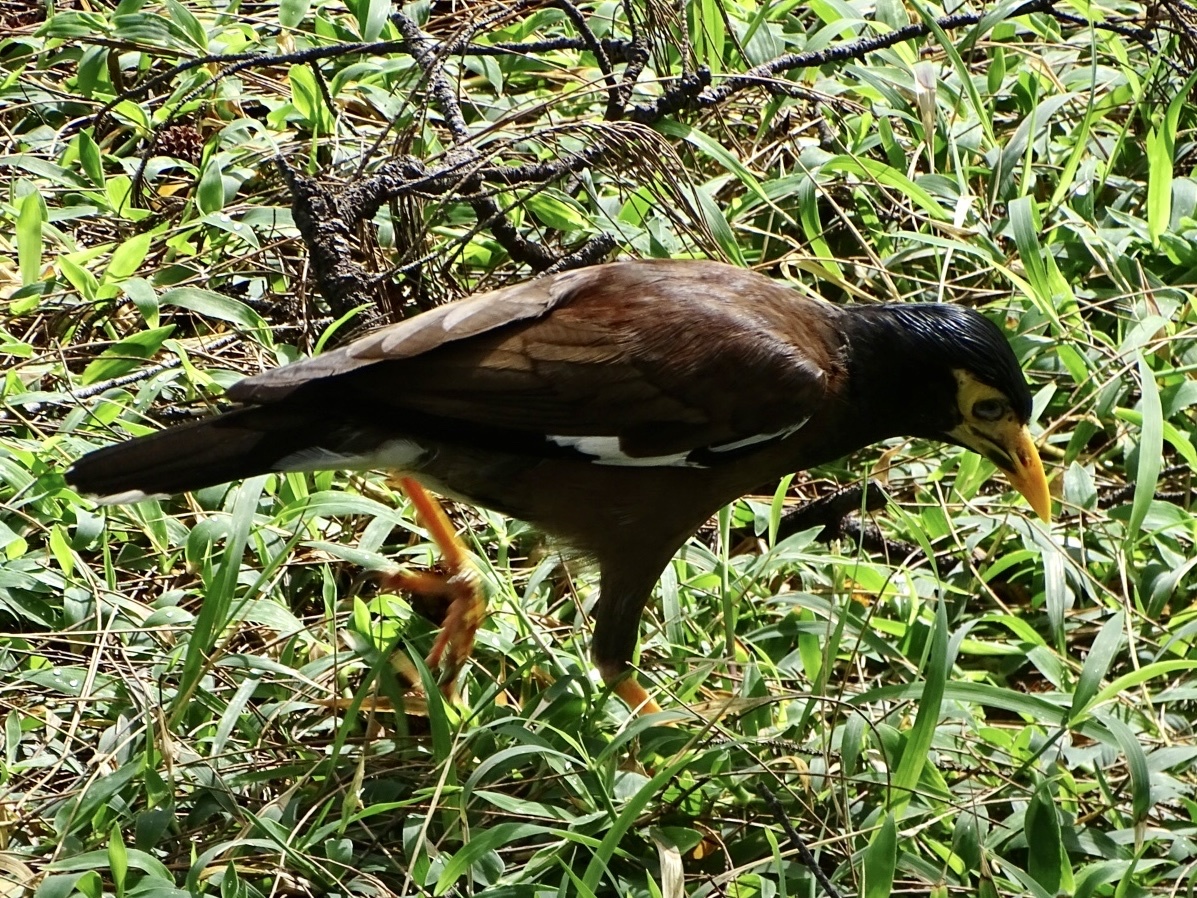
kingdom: Animalia
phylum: Chordata
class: Aves
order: Passeriformes
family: Sturnidae
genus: Acridotheres
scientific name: Acridotheres tristis
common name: Common myna
